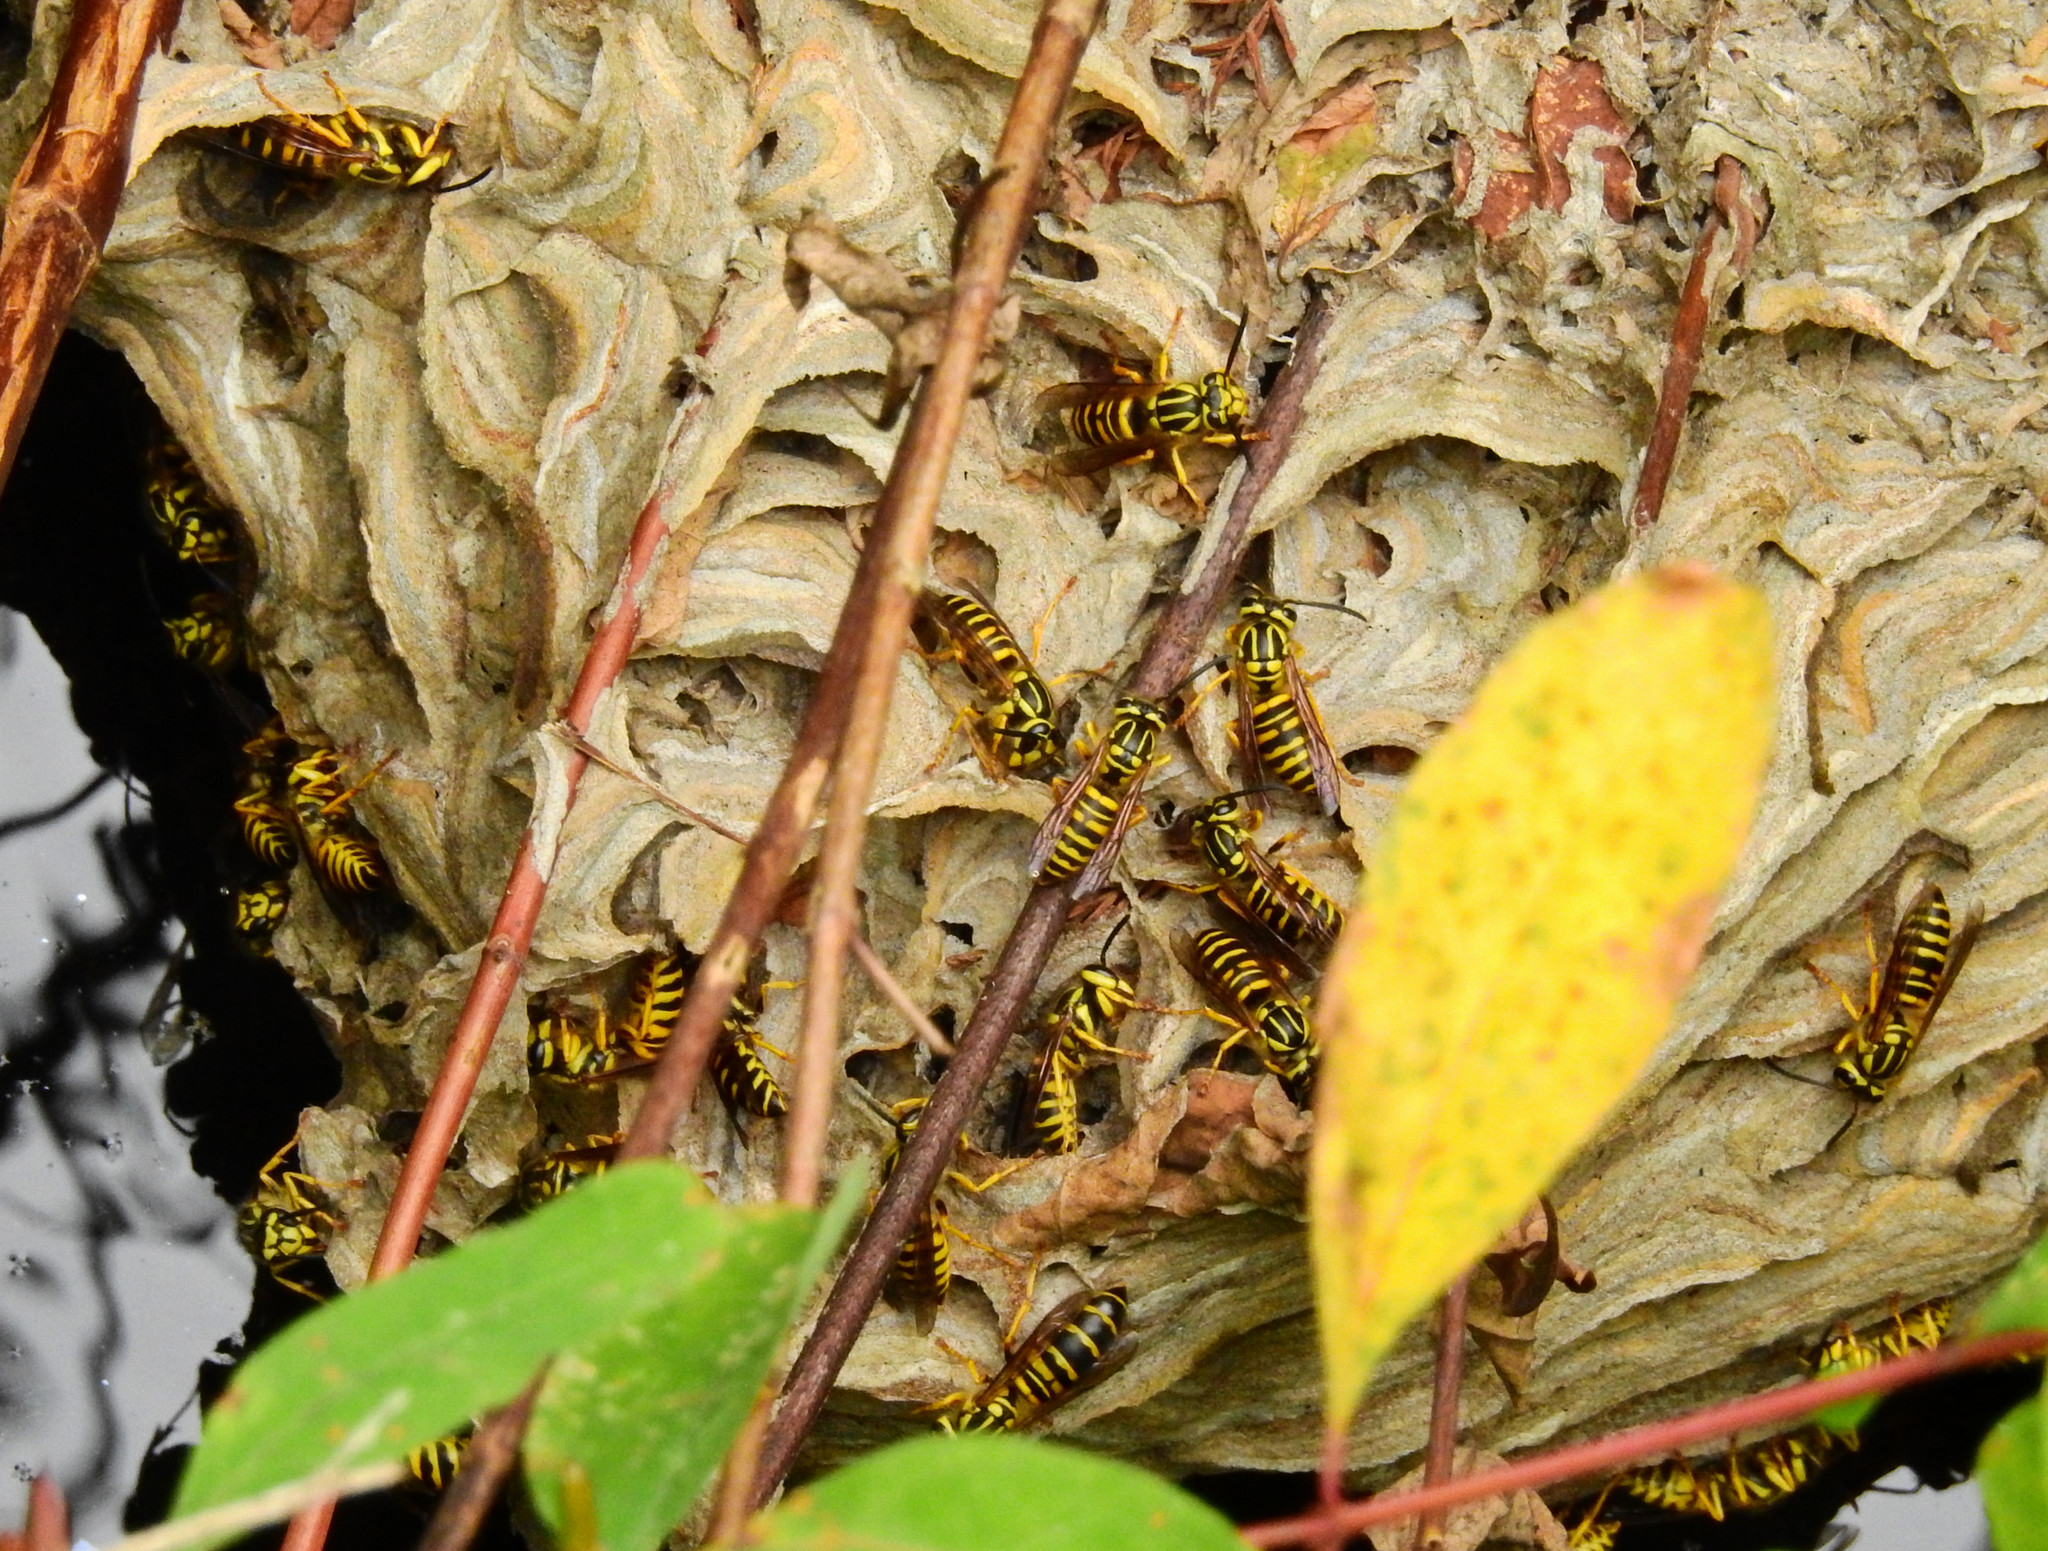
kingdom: Animalia
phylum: Arthropoda
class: Insecta
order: Hymenoptera
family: Vespidae
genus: Vespula
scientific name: Vespula squamosa
